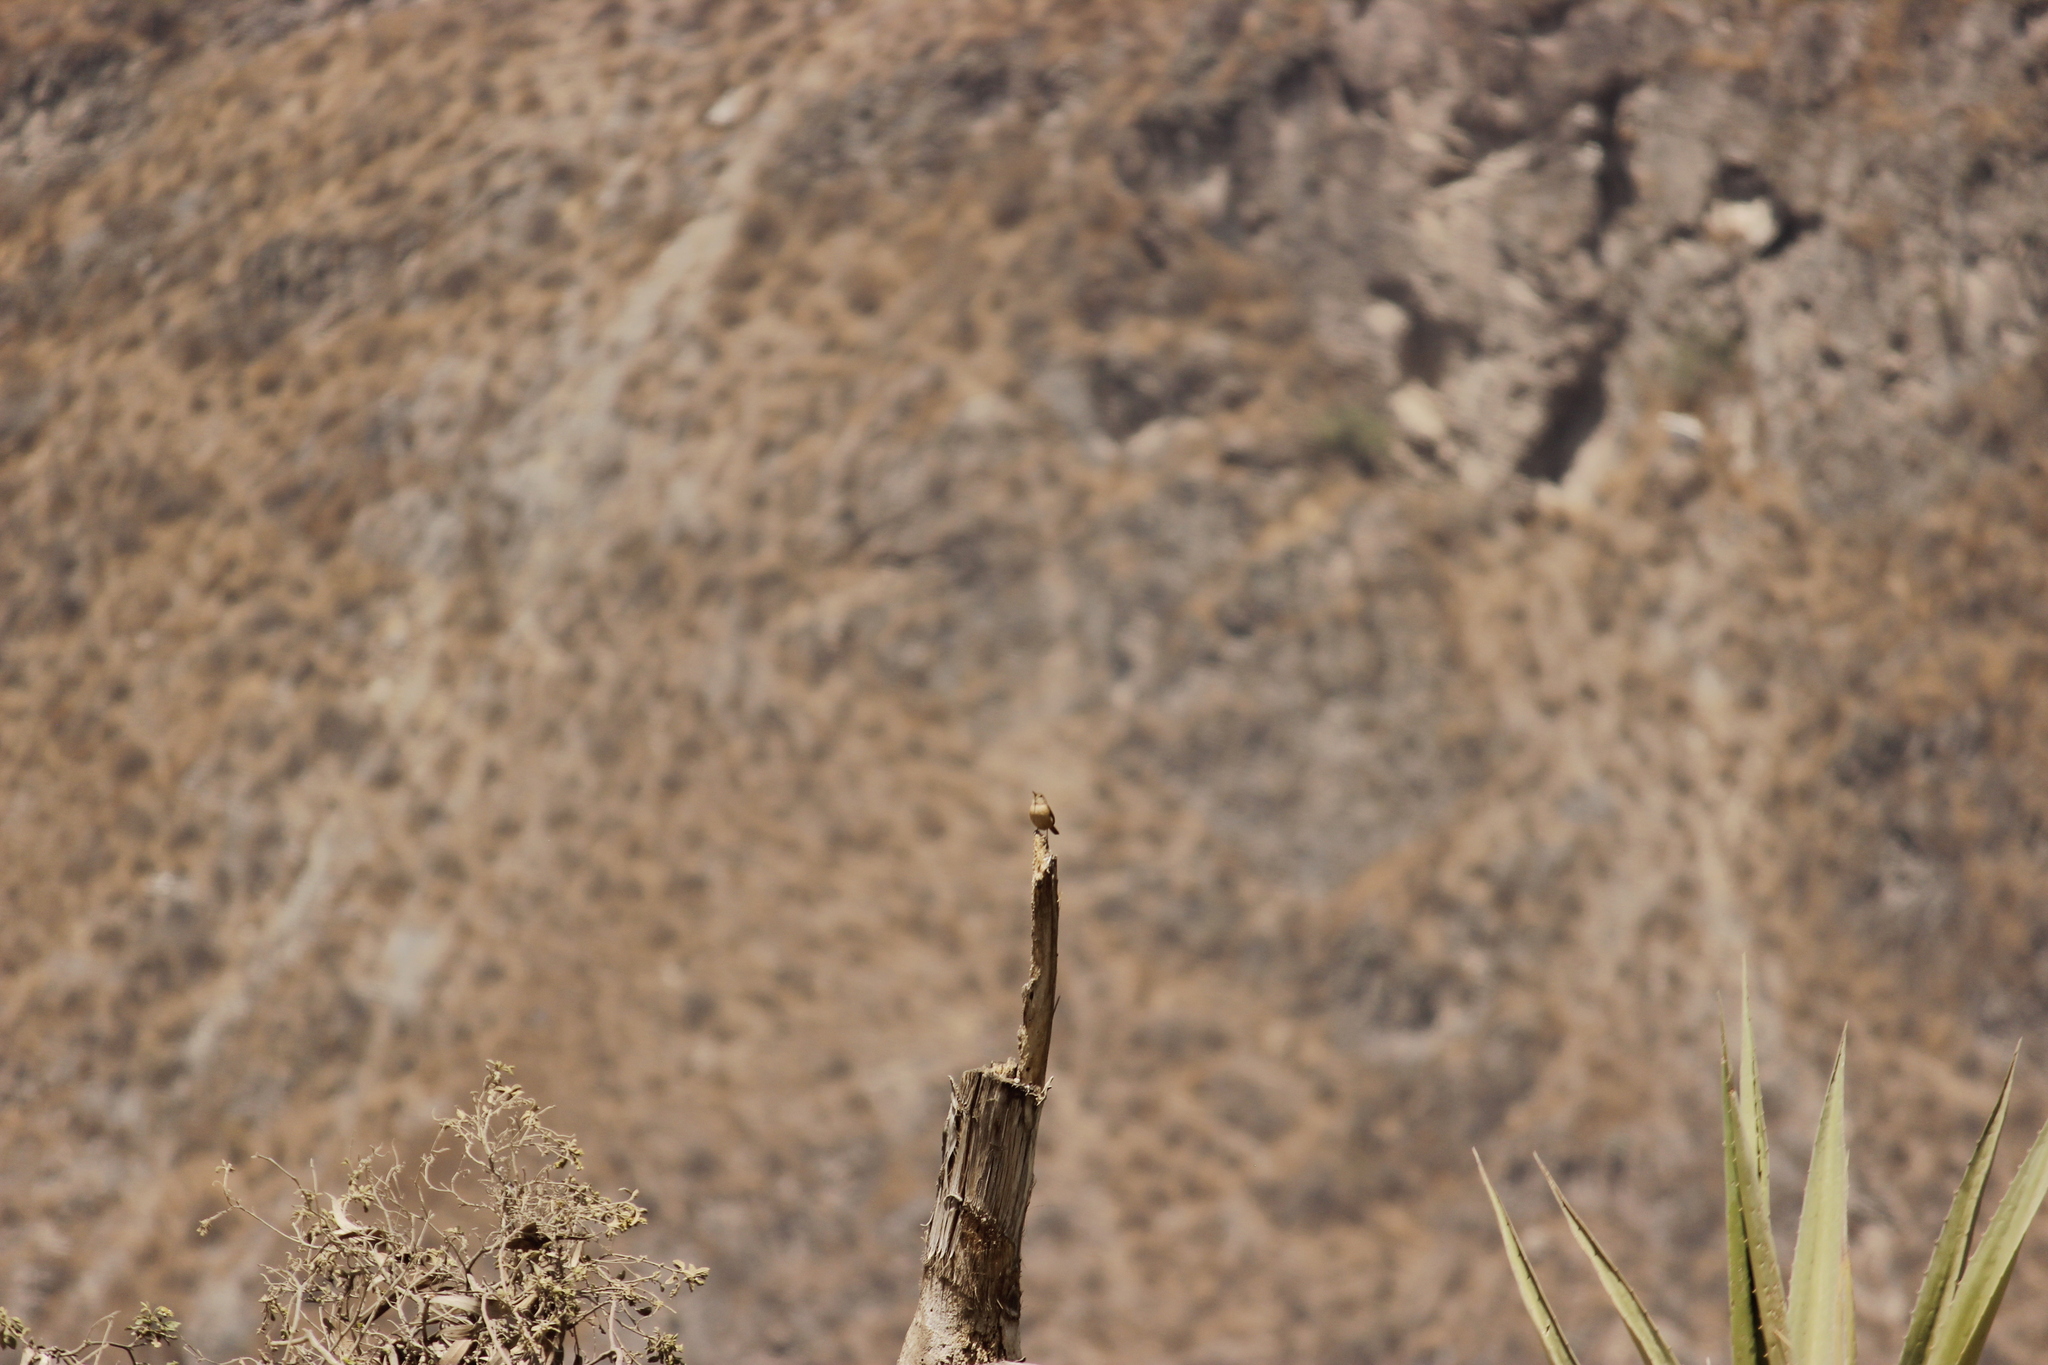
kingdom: Animalia
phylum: Chordata
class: Aves
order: Passeriformes
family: Troglodytidae
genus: Troglodytes
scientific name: Troglodytes aedon
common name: House wren
